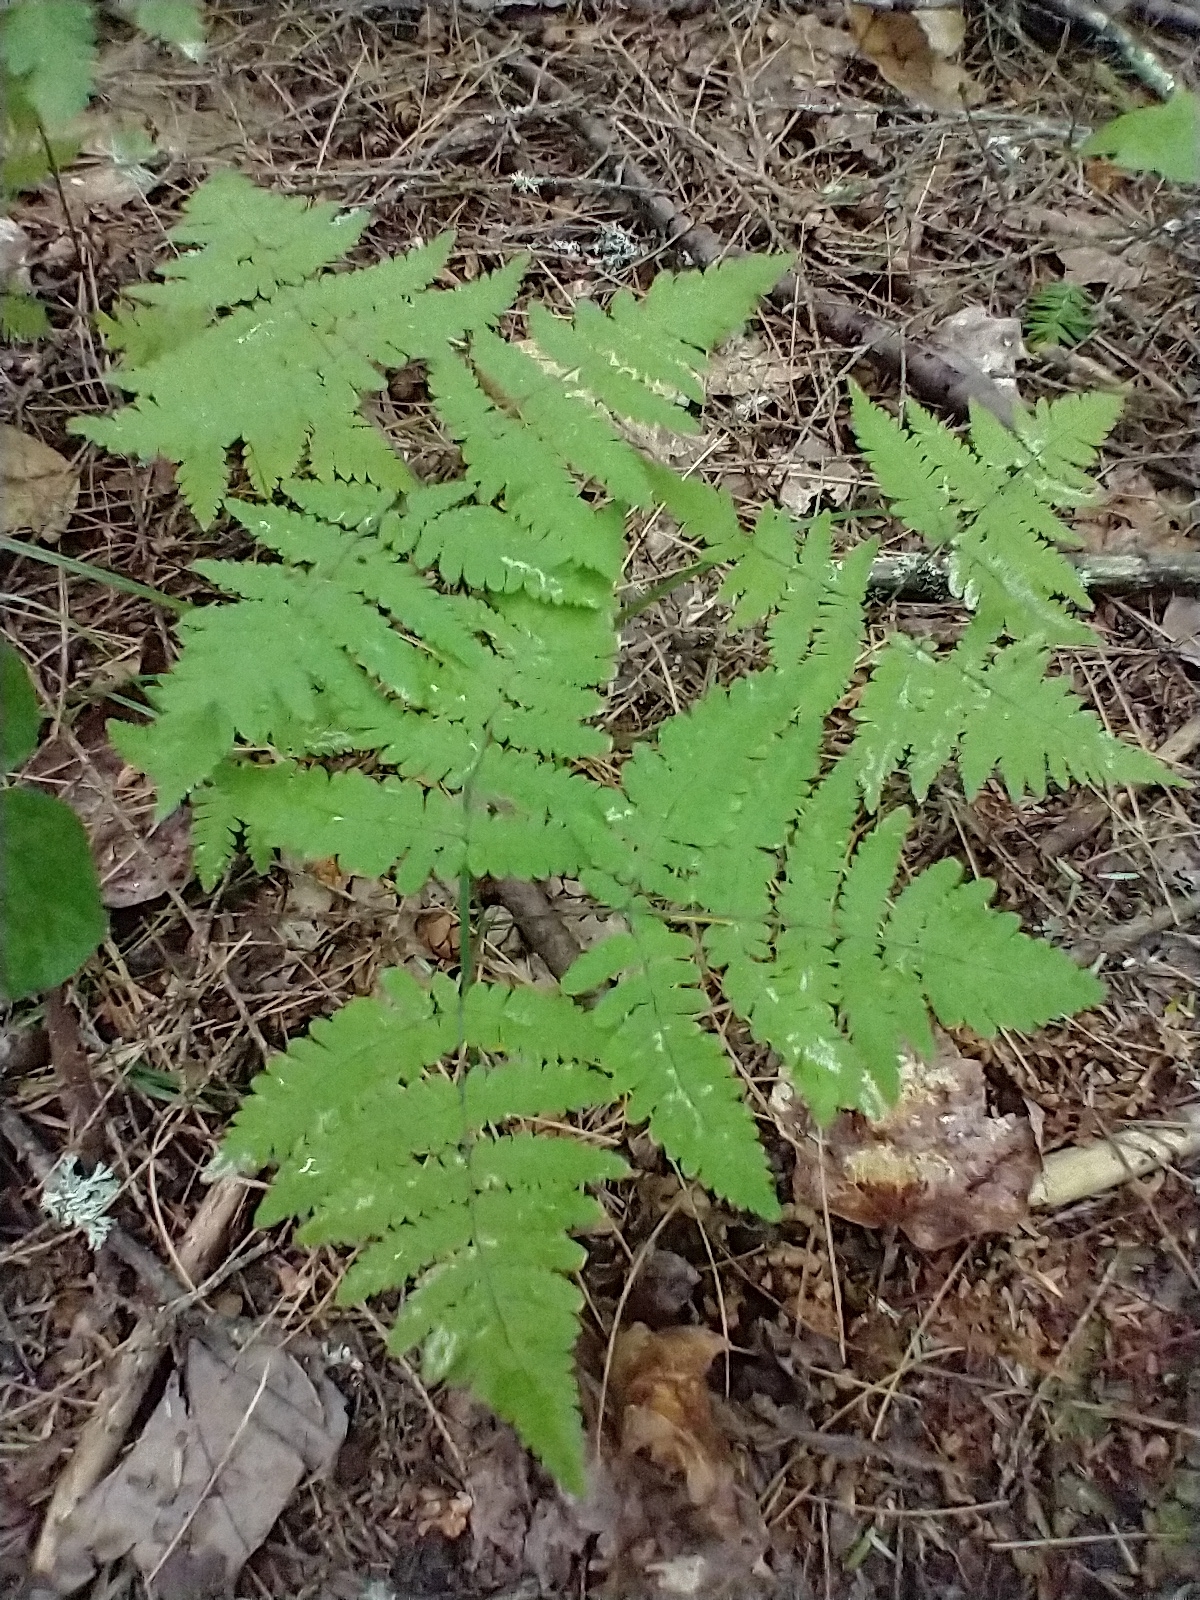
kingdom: Plantae
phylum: Tracheophyta
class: Polypodiopsida
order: Polypodiales
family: Cystopteridaceae
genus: Gymnocarpium
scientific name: Gymnocarpium dryopteris
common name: Oak fern
